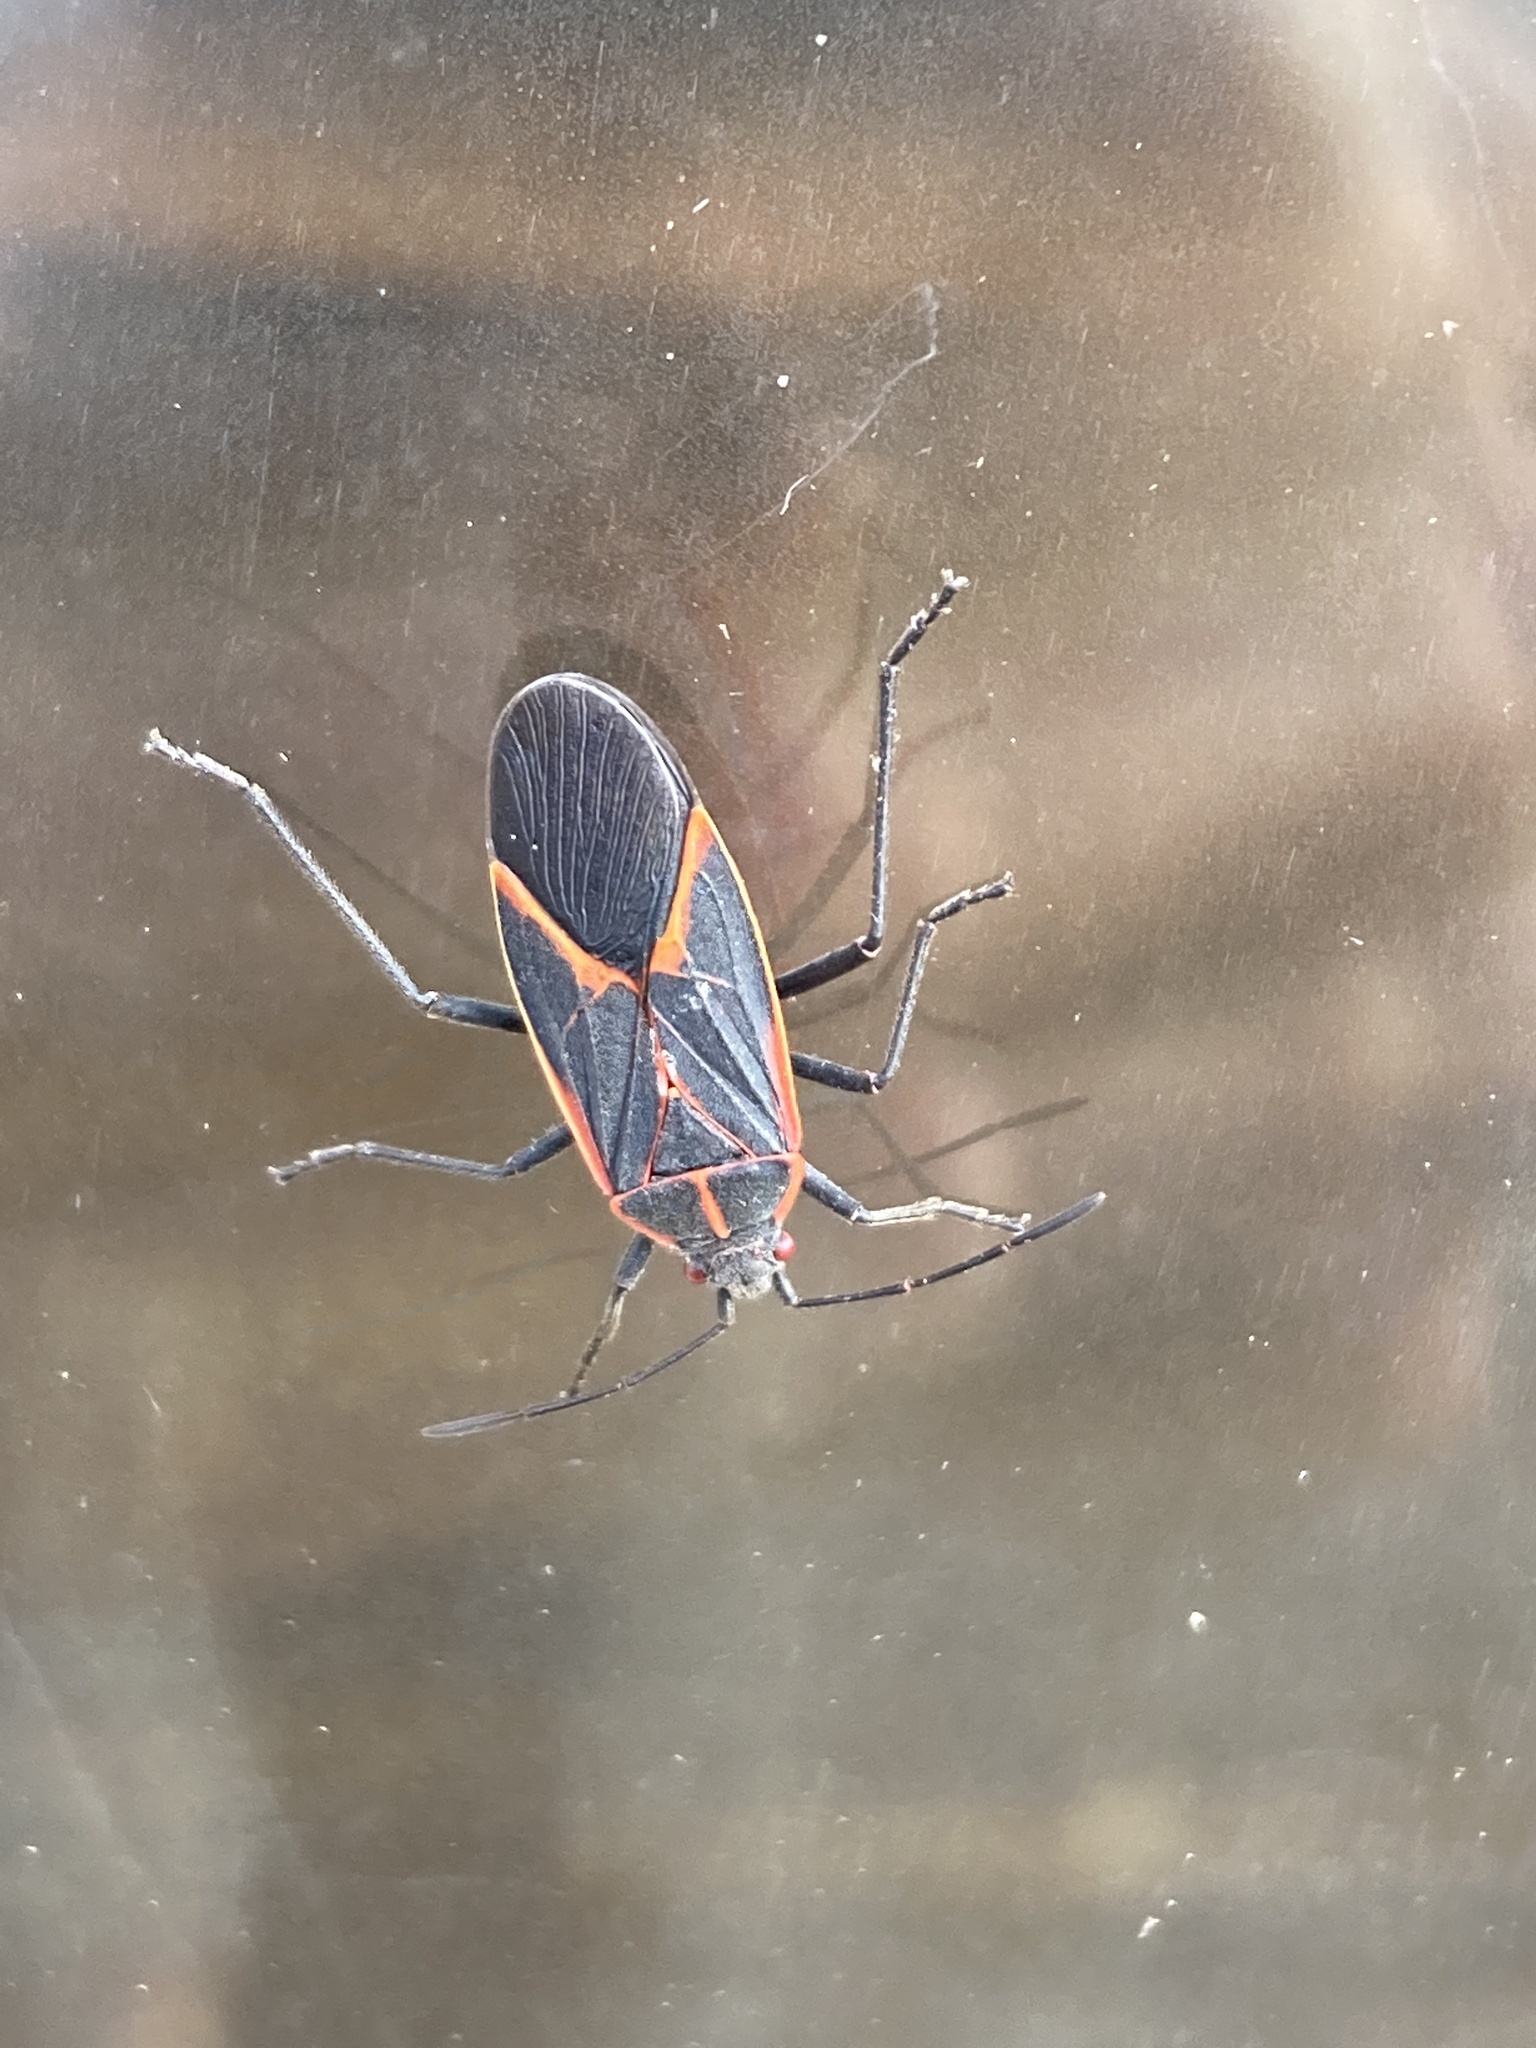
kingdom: Animalia
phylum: Arthropoda
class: Insecta
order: Hemiptera
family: Rhopalidae
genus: Boisea
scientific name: Boisea trivittata
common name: Boxelder bug
